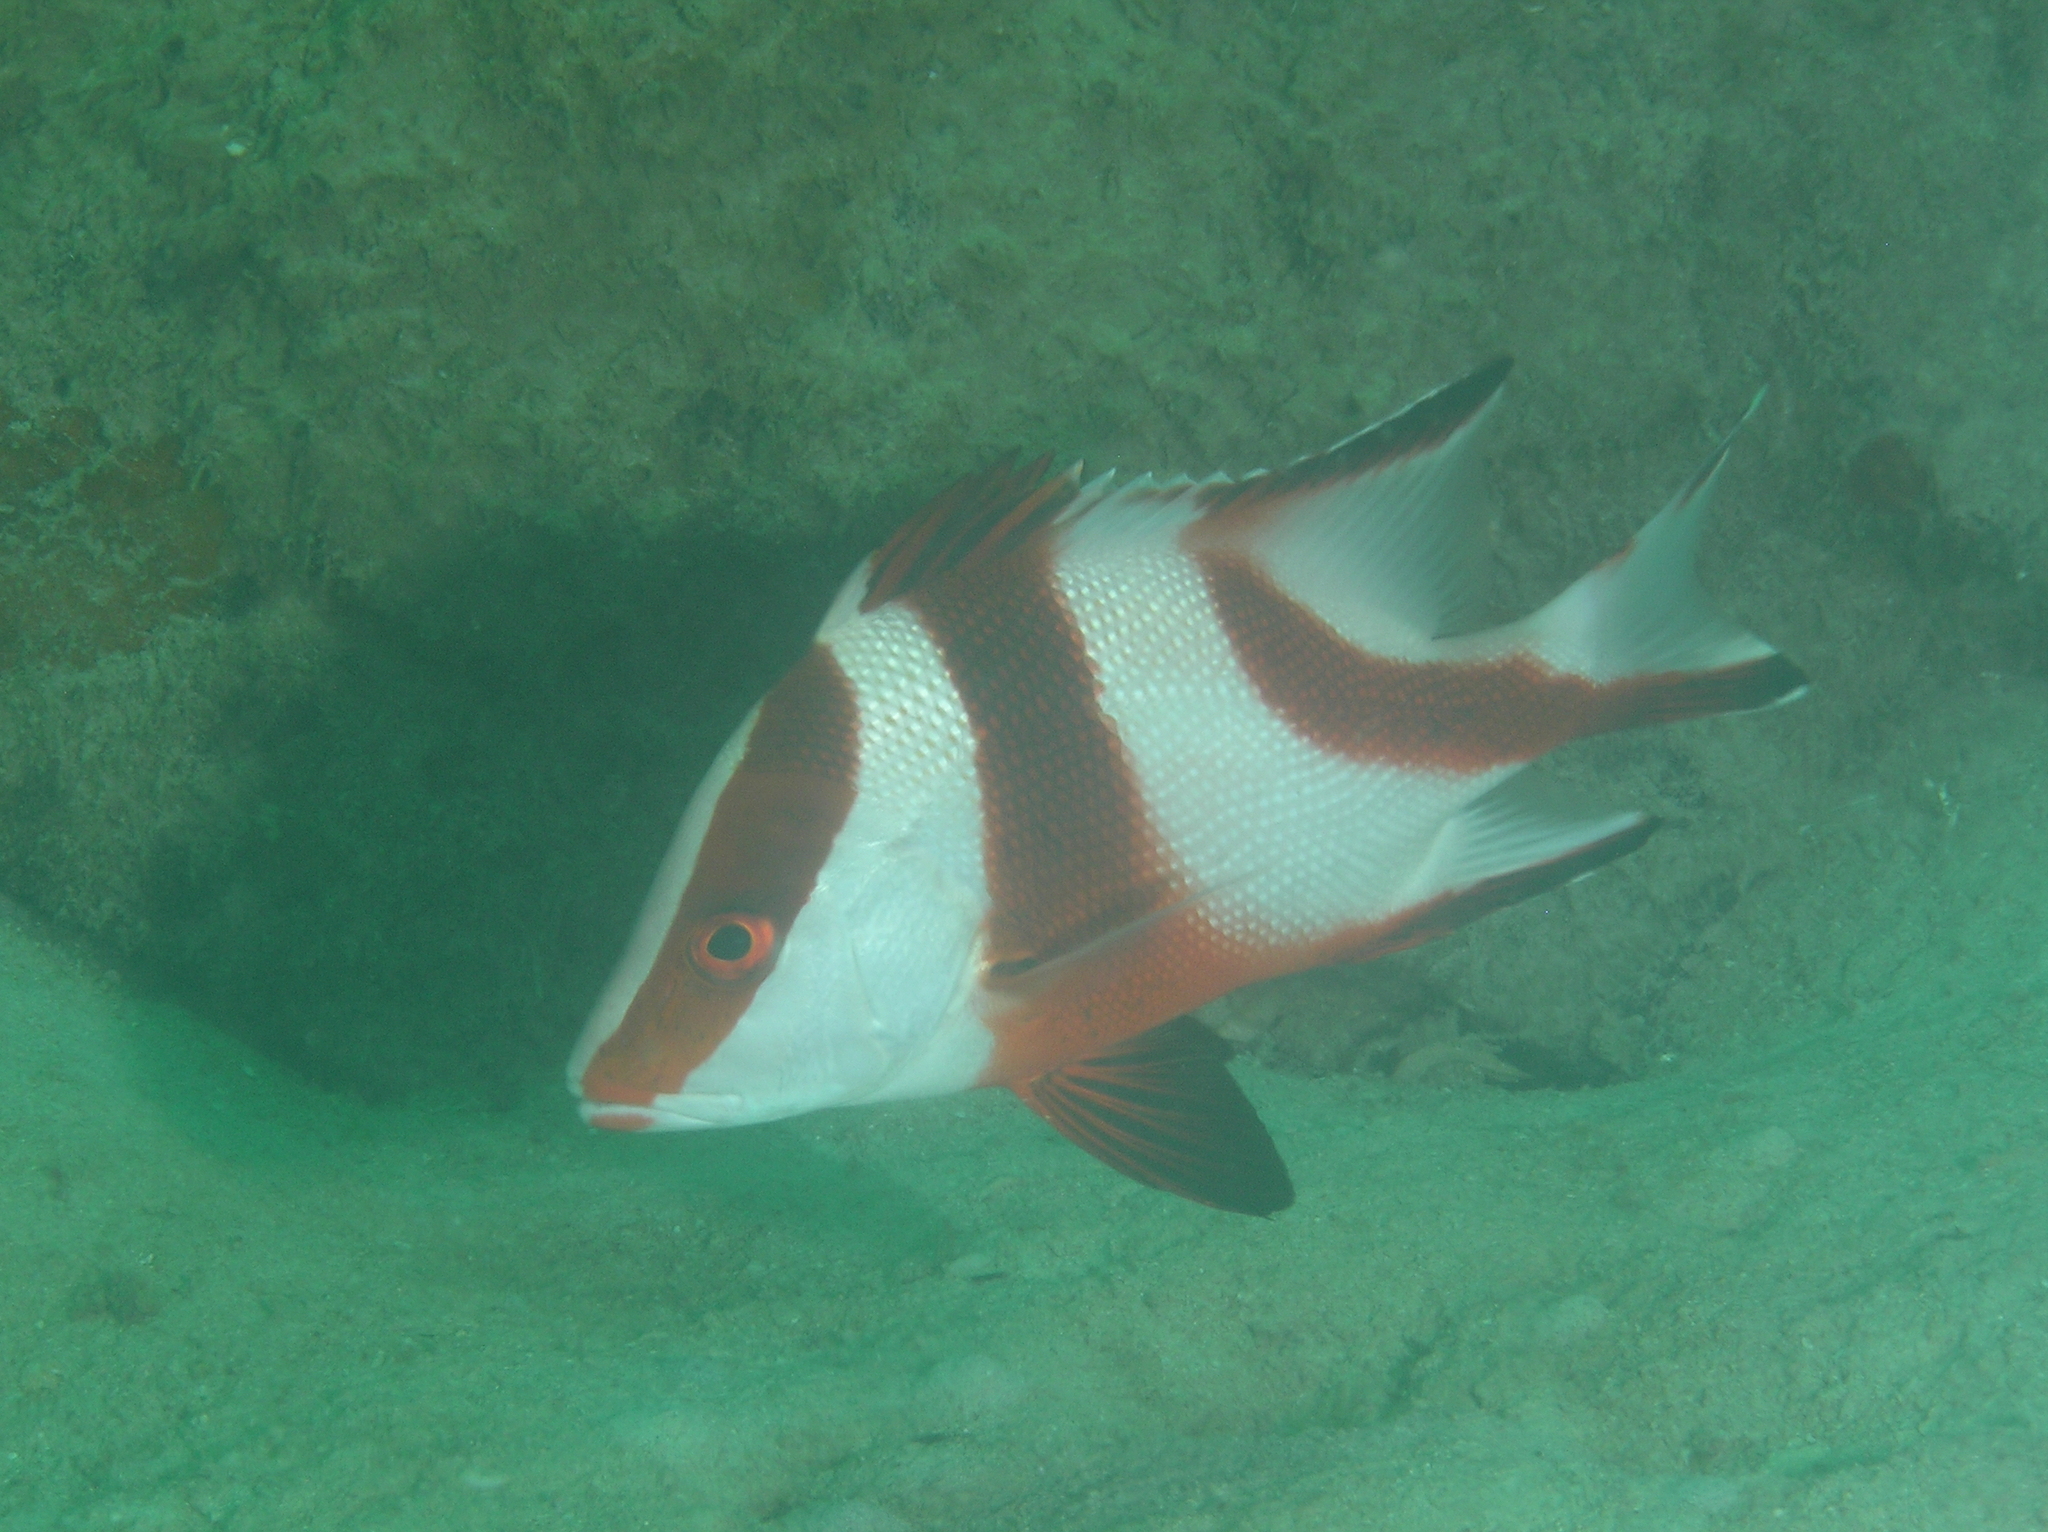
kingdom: Animalia
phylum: Chordata
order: Perciformes
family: Lutjanidae
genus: Lutjanus
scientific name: Lutjanus sebae
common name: Emperor red snapper
